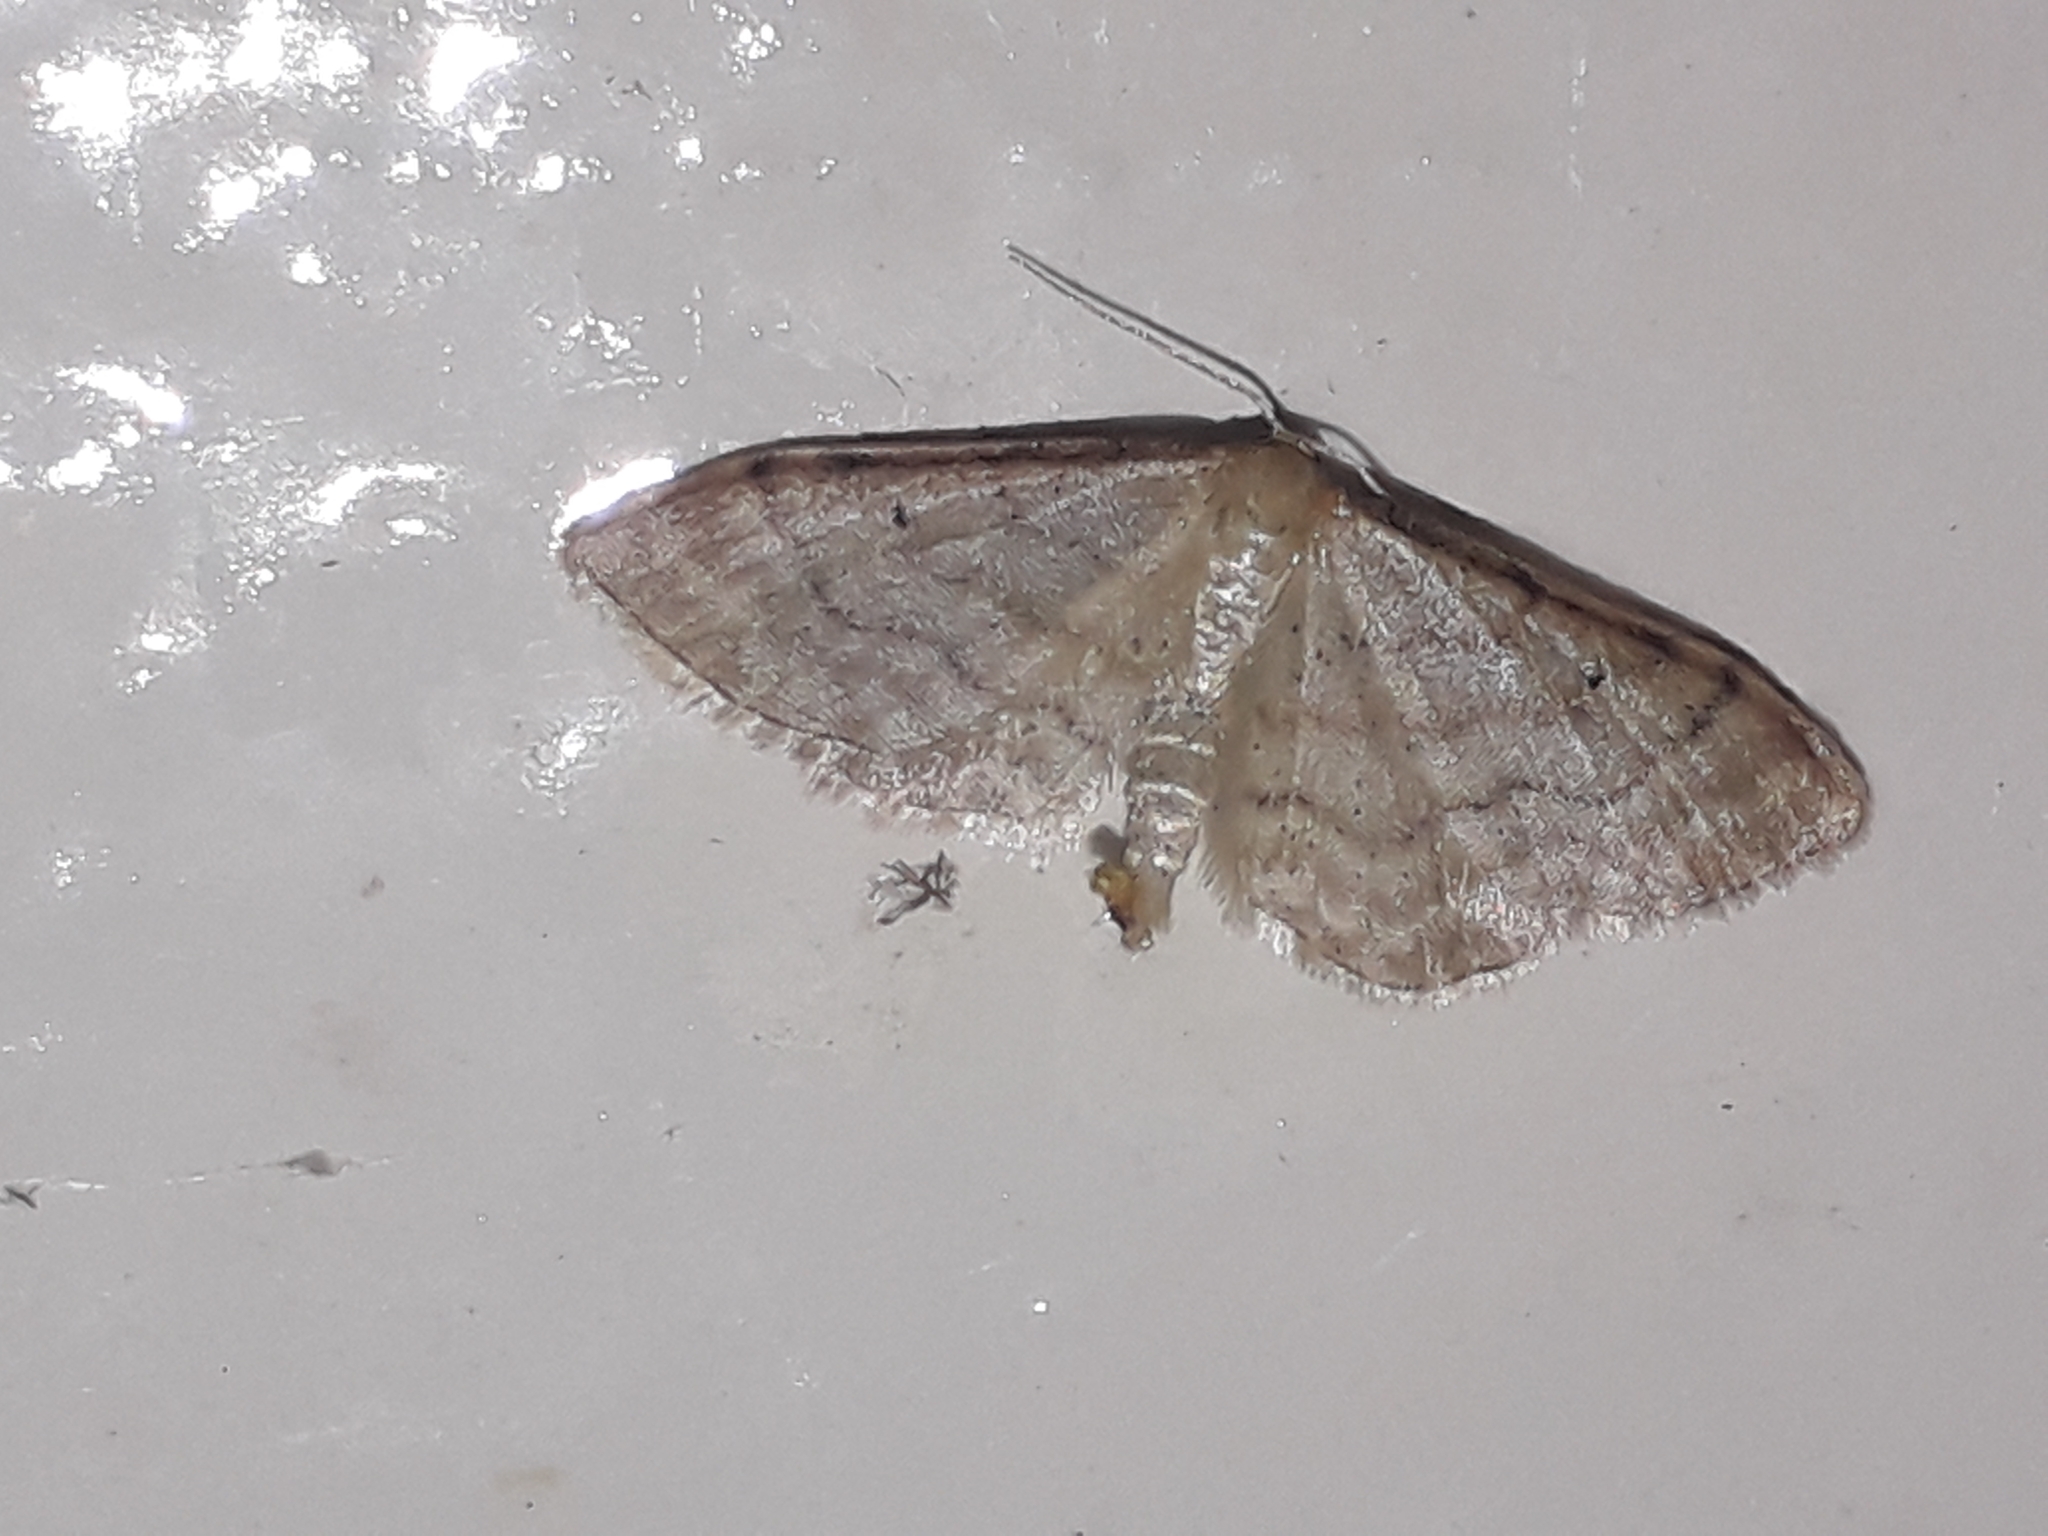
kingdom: Animalia
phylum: Arthropoda
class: Insecta
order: Lepidoptera
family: Geometridae
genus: Idaea
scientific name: Idaea humiliata
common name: Isle of wight wave
